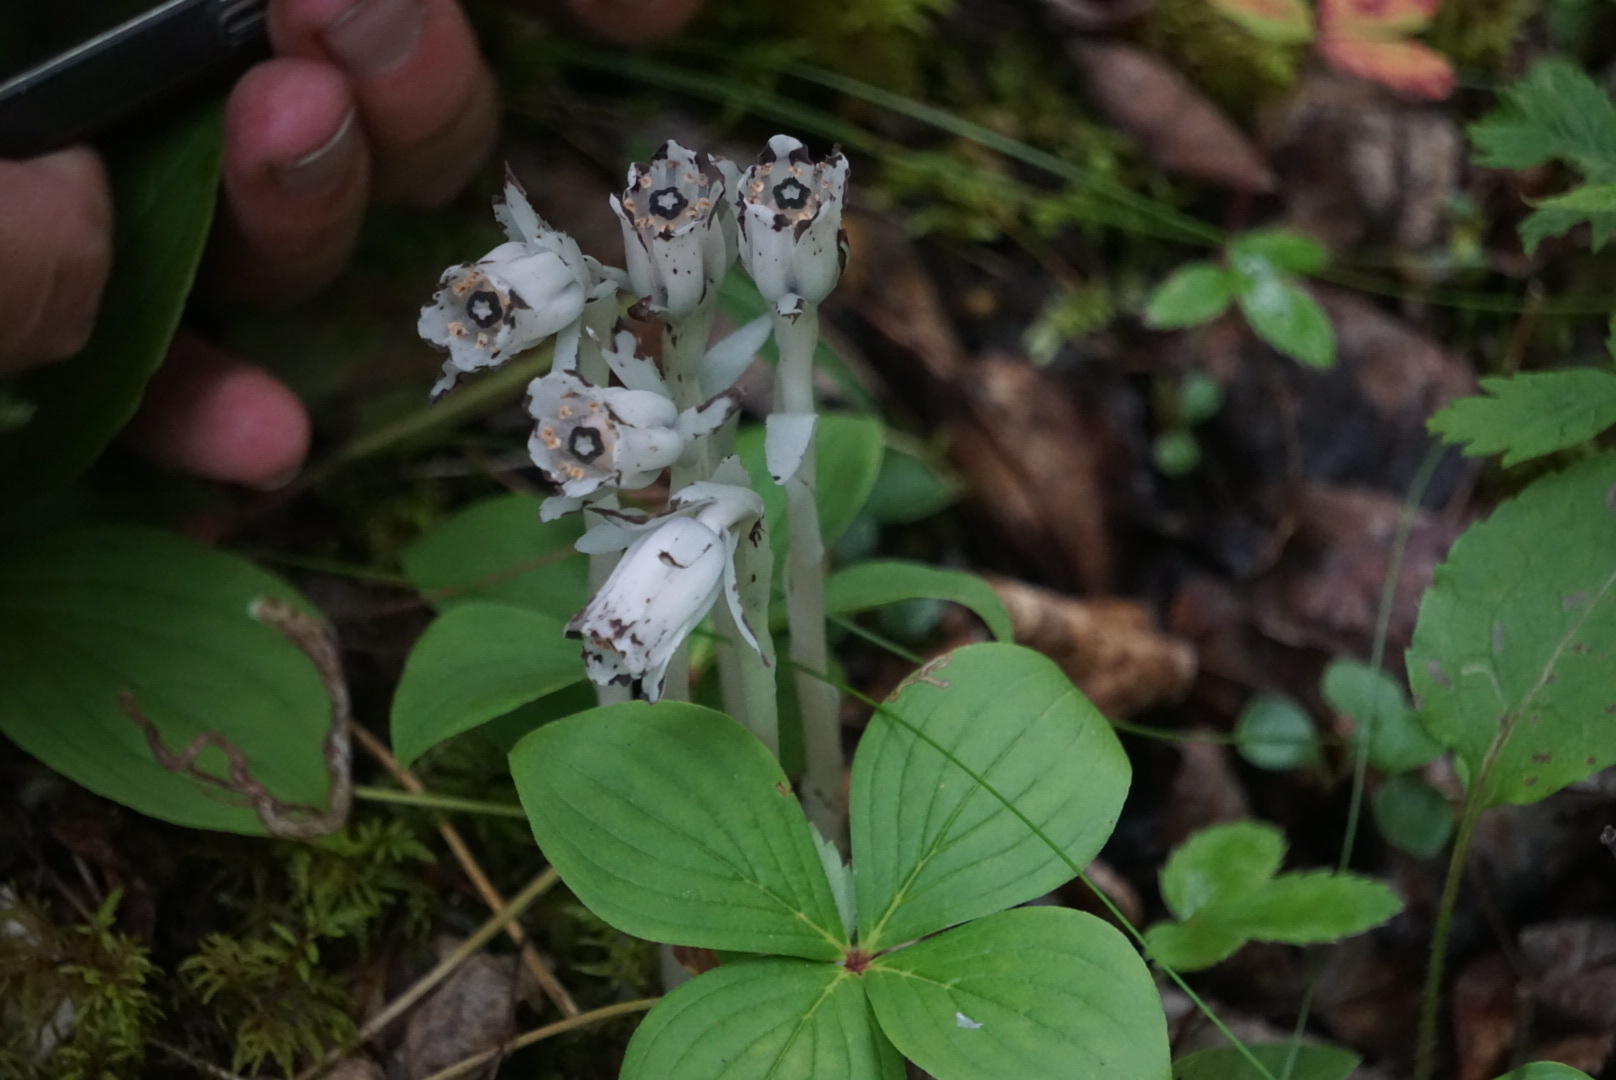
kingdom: Plantae
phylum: Tracheophyta
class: Magnoliopsida
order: Ericales
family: Ericaceae
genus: Monotropa
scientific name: Monotropa uniflora
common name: Convulsion root
